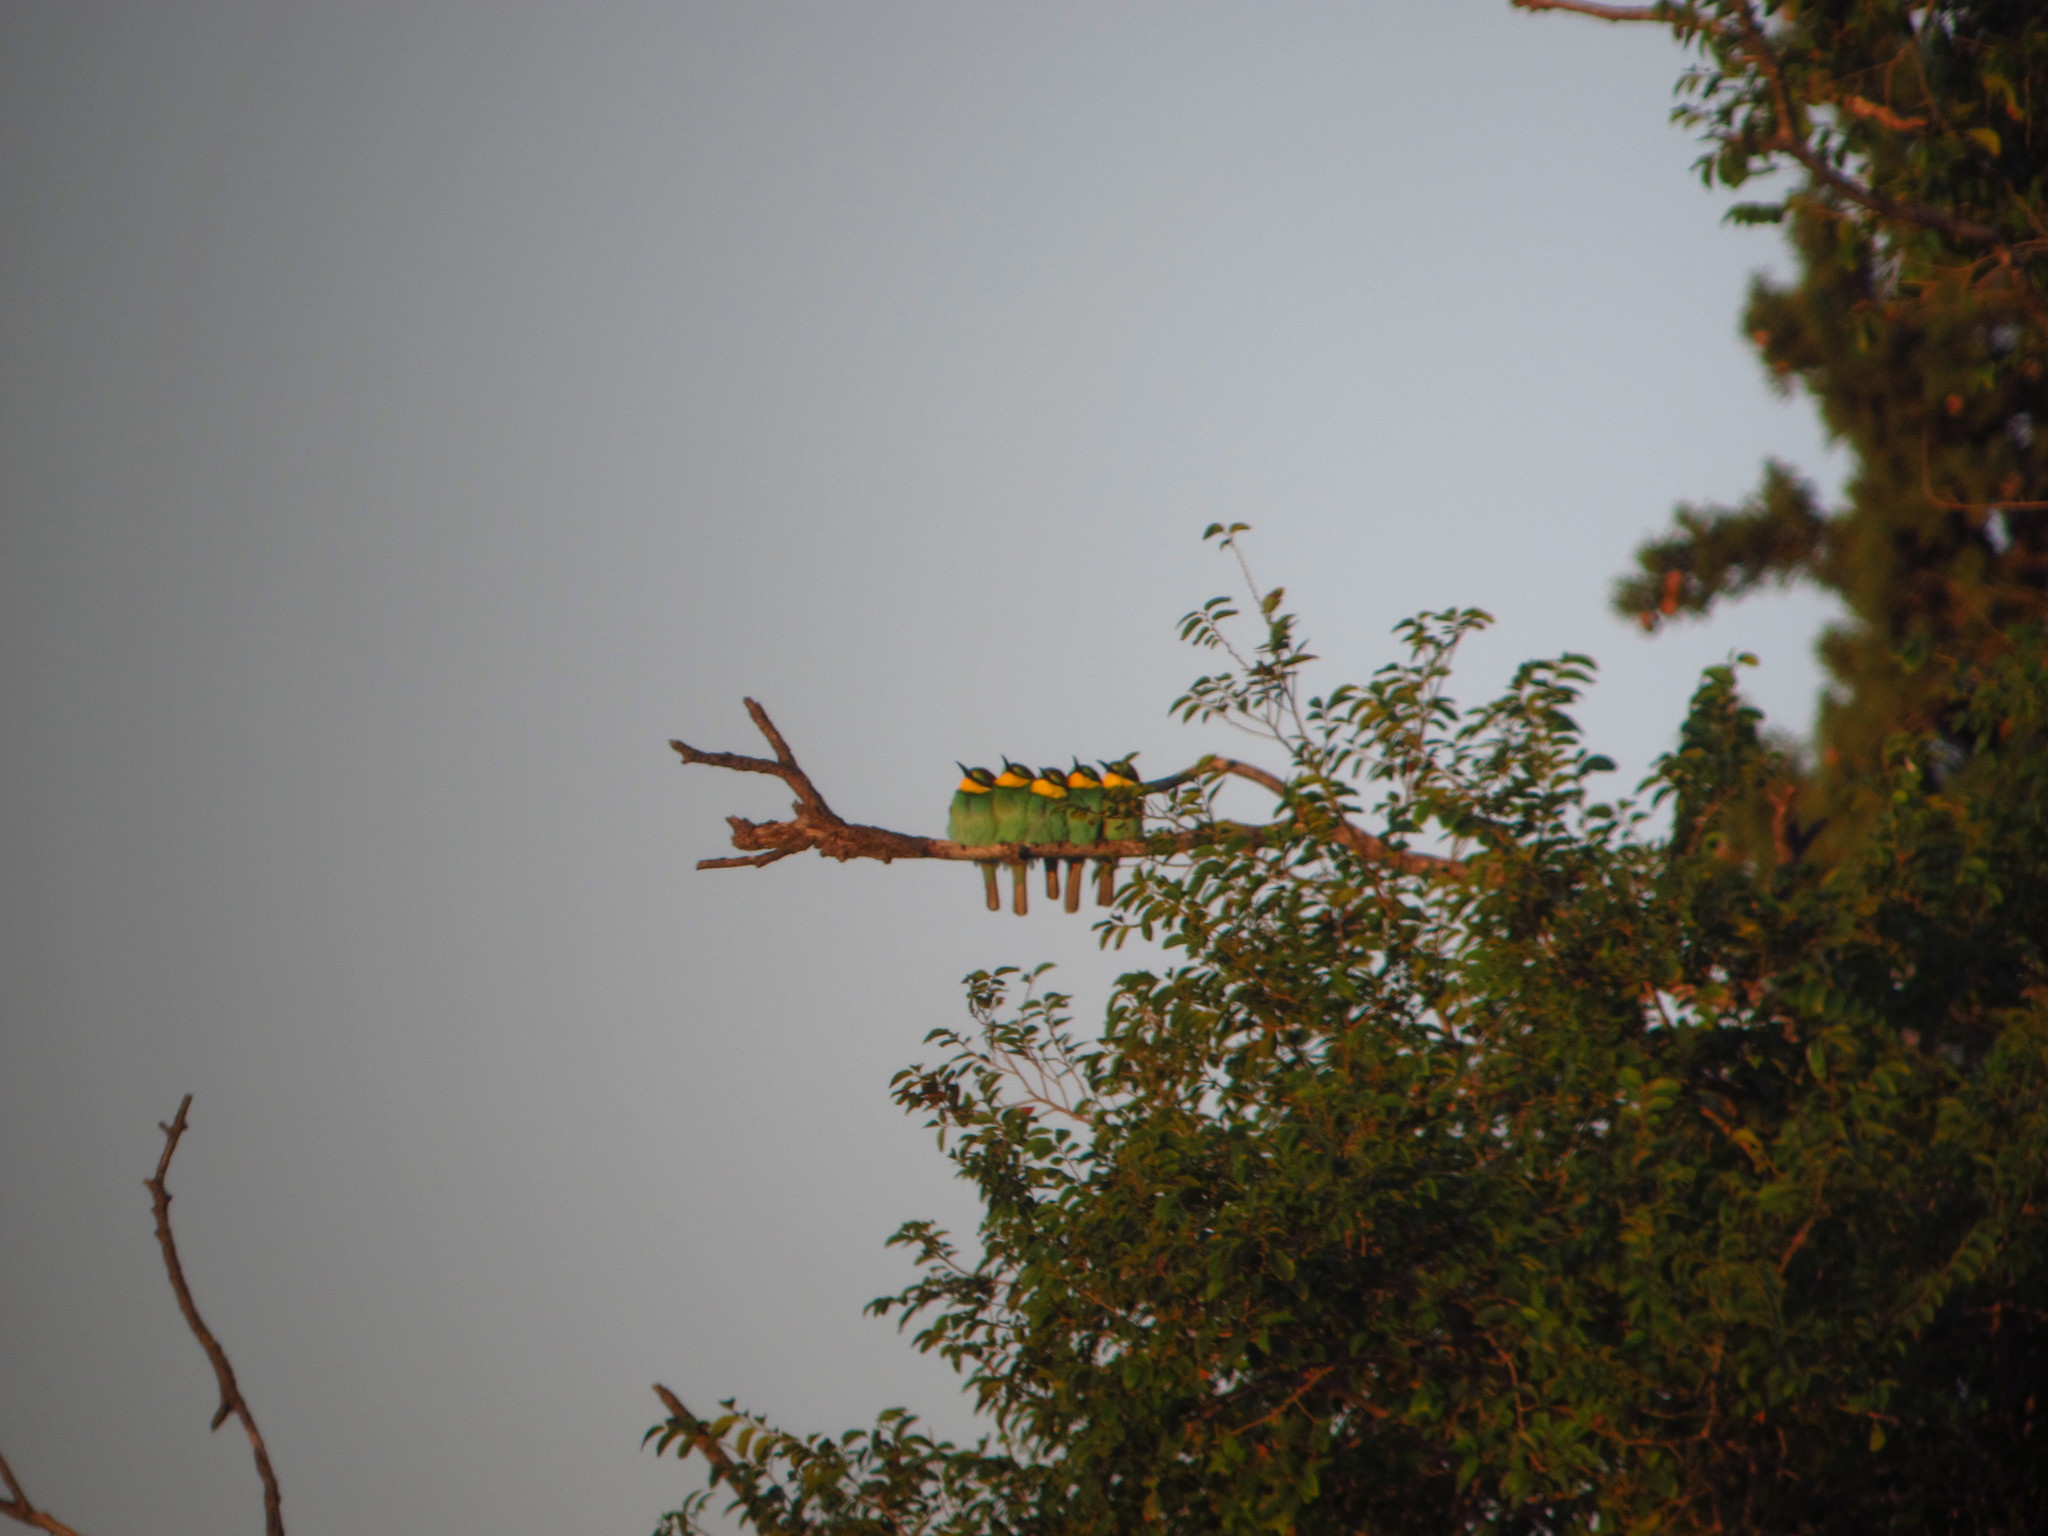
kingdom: Animalia
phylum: Chordata
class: Aves
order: Coraciiformes
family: Meropidae
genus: Merops
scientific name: Merops apiaster
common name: European bee-eater
